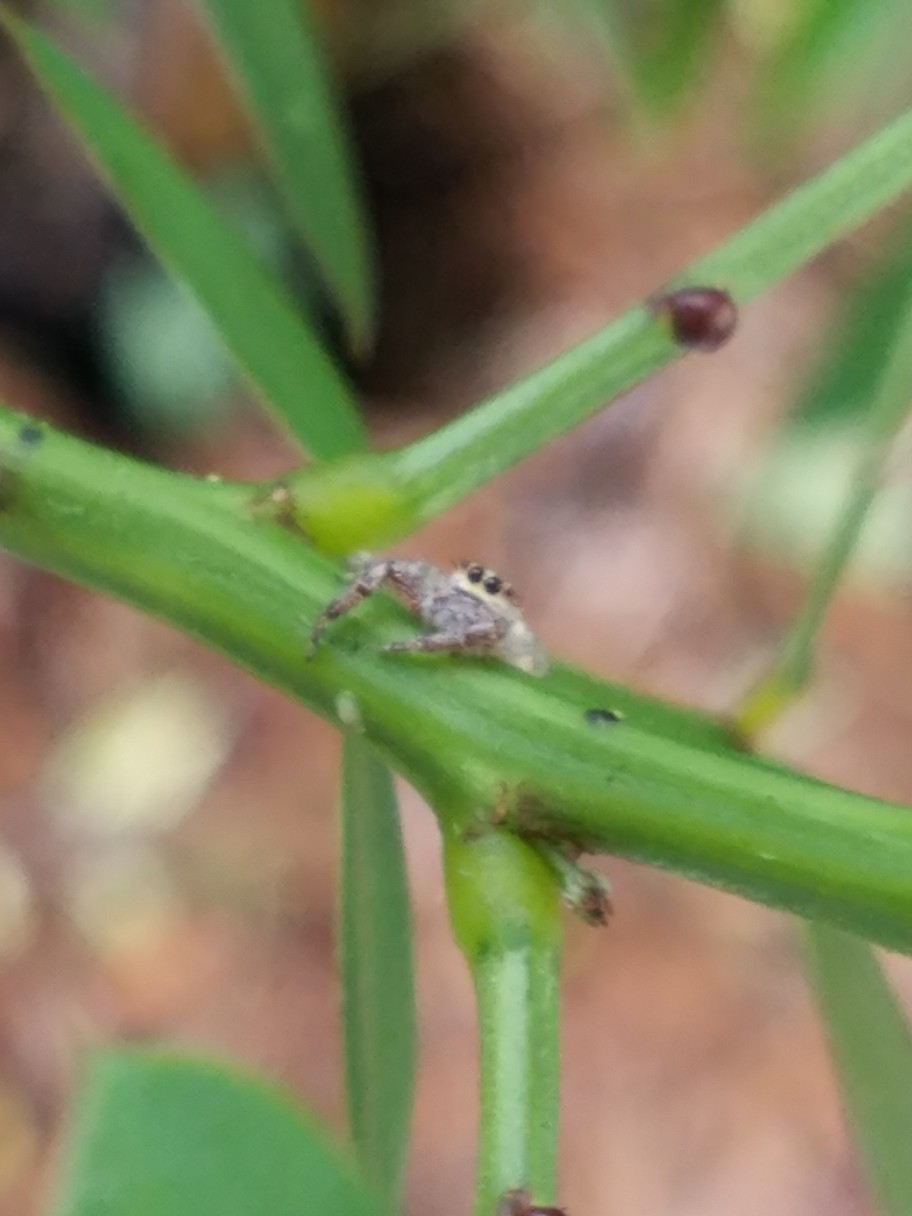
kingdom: Animalia
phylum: Arthropoda
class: Arachnida
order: Araneae
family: Salticidae
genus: Hentzia
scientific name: Hentzia palmarum
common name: Common hentz jumping spider
